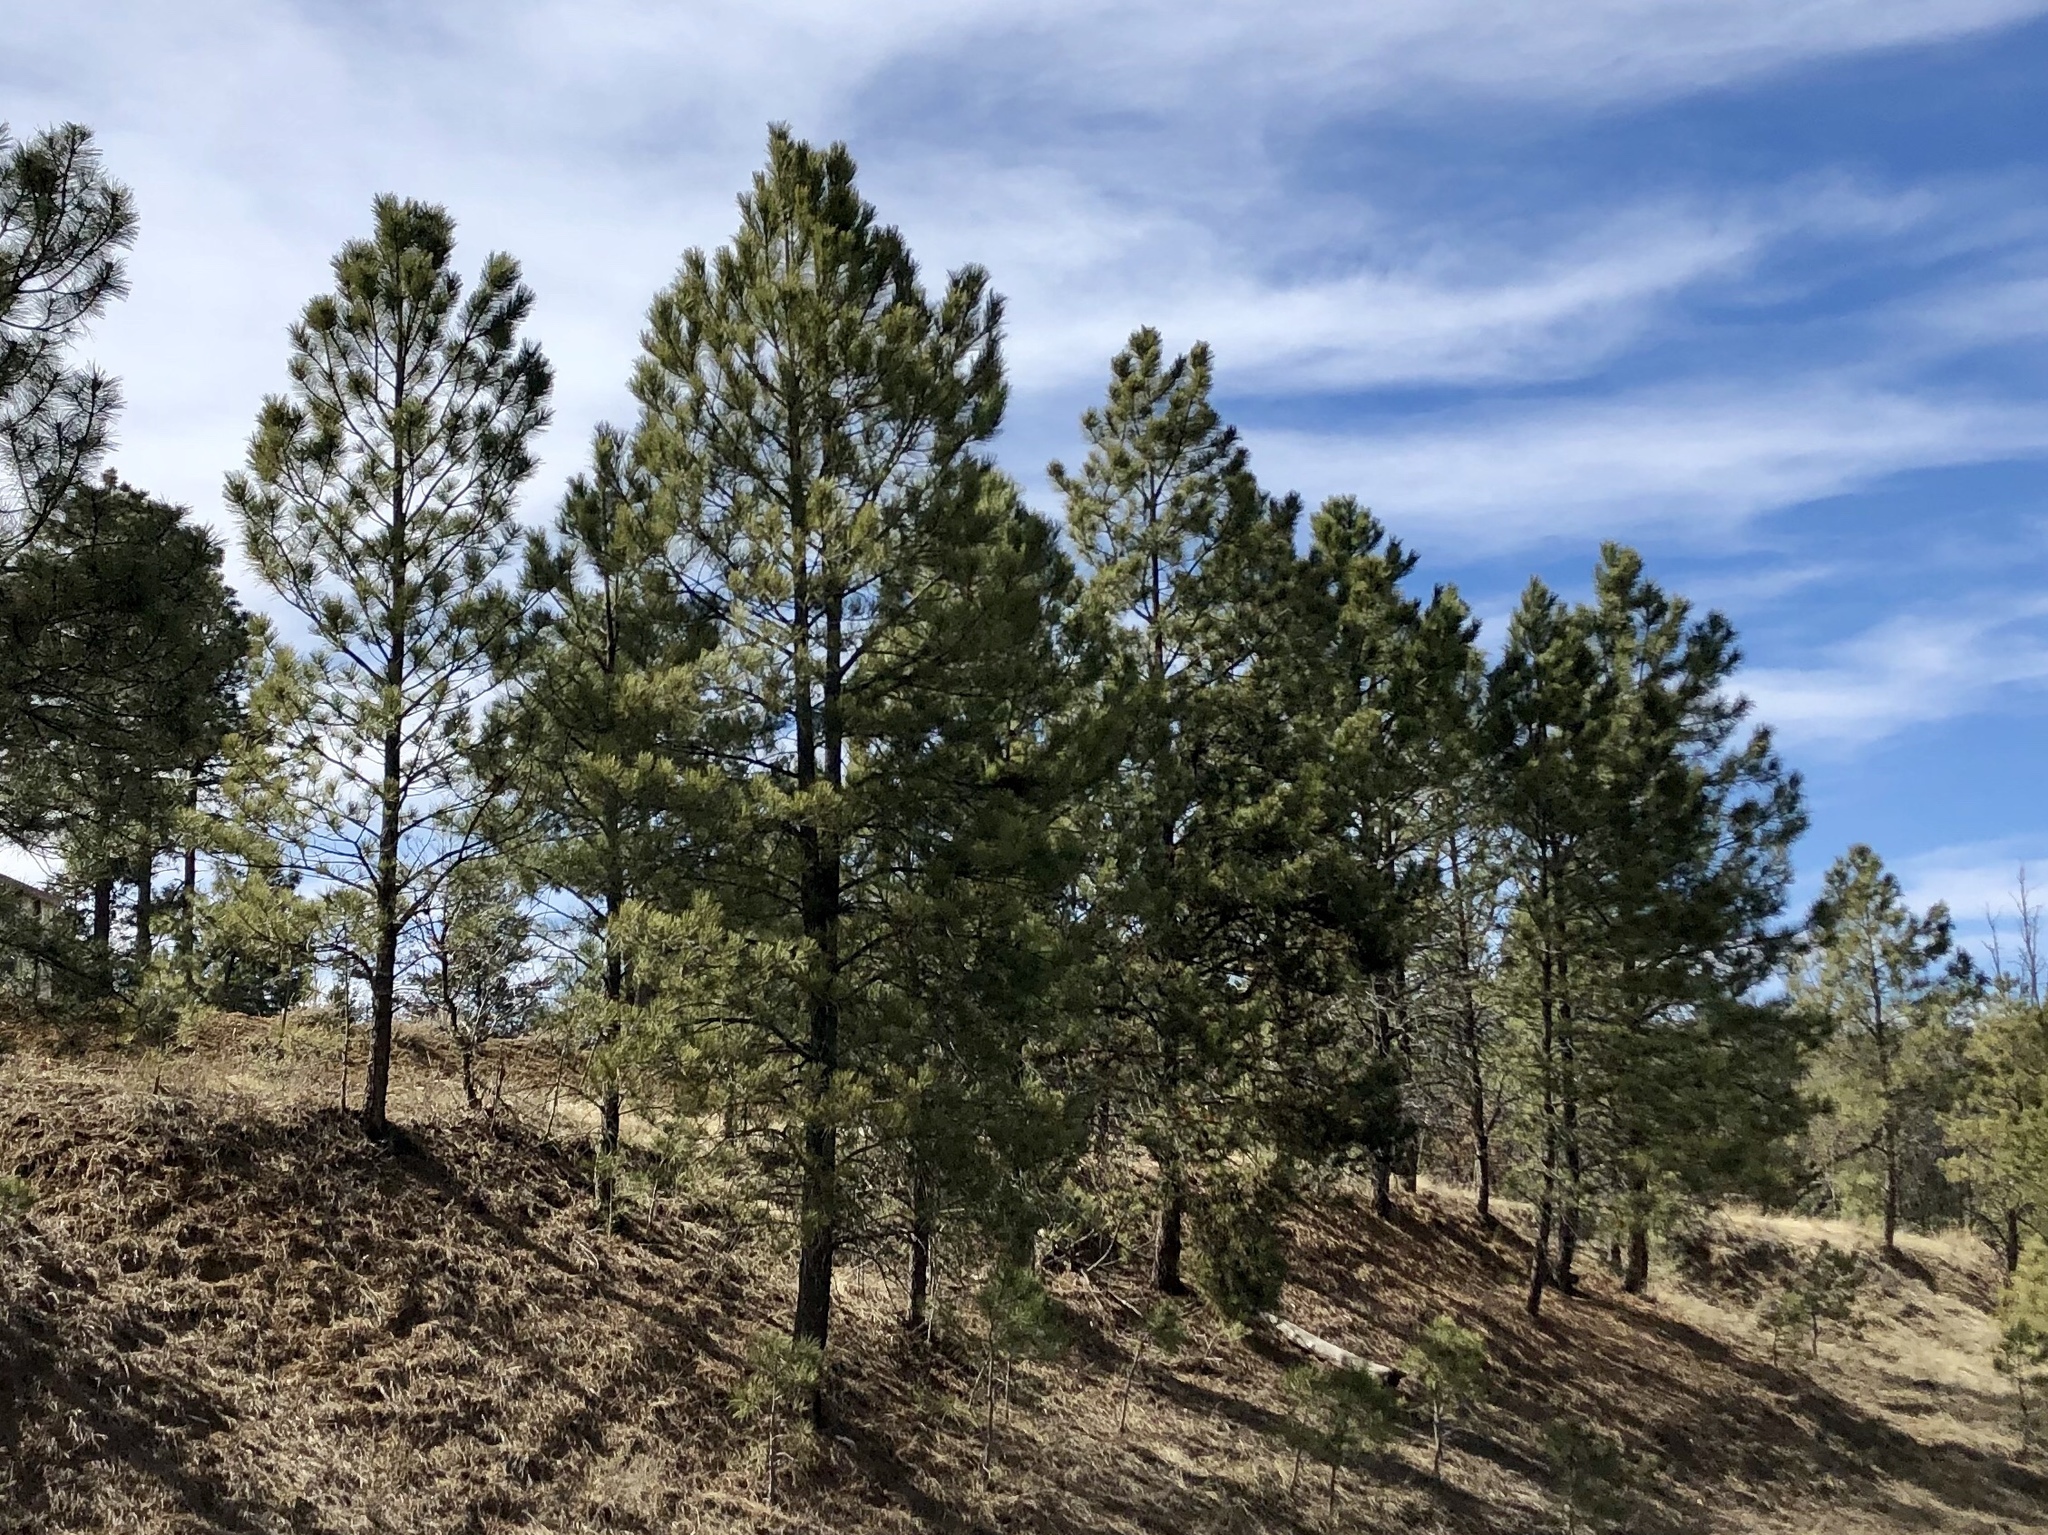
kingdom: Plantae
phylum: Tracheophyta
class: Pinopsida
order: Pinales
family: Pinaceae
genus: Pinus
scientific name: Pinus ponderosa
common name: Western yellow-pine
